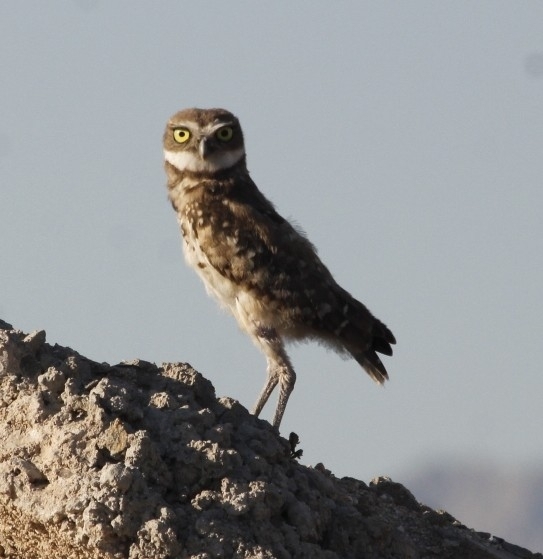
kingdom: Animalia
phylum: Chordata
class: Aves
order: Strigiformes
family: Strigidae
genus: Athene
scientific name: Athene cunicularia
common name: Burrowing owl
